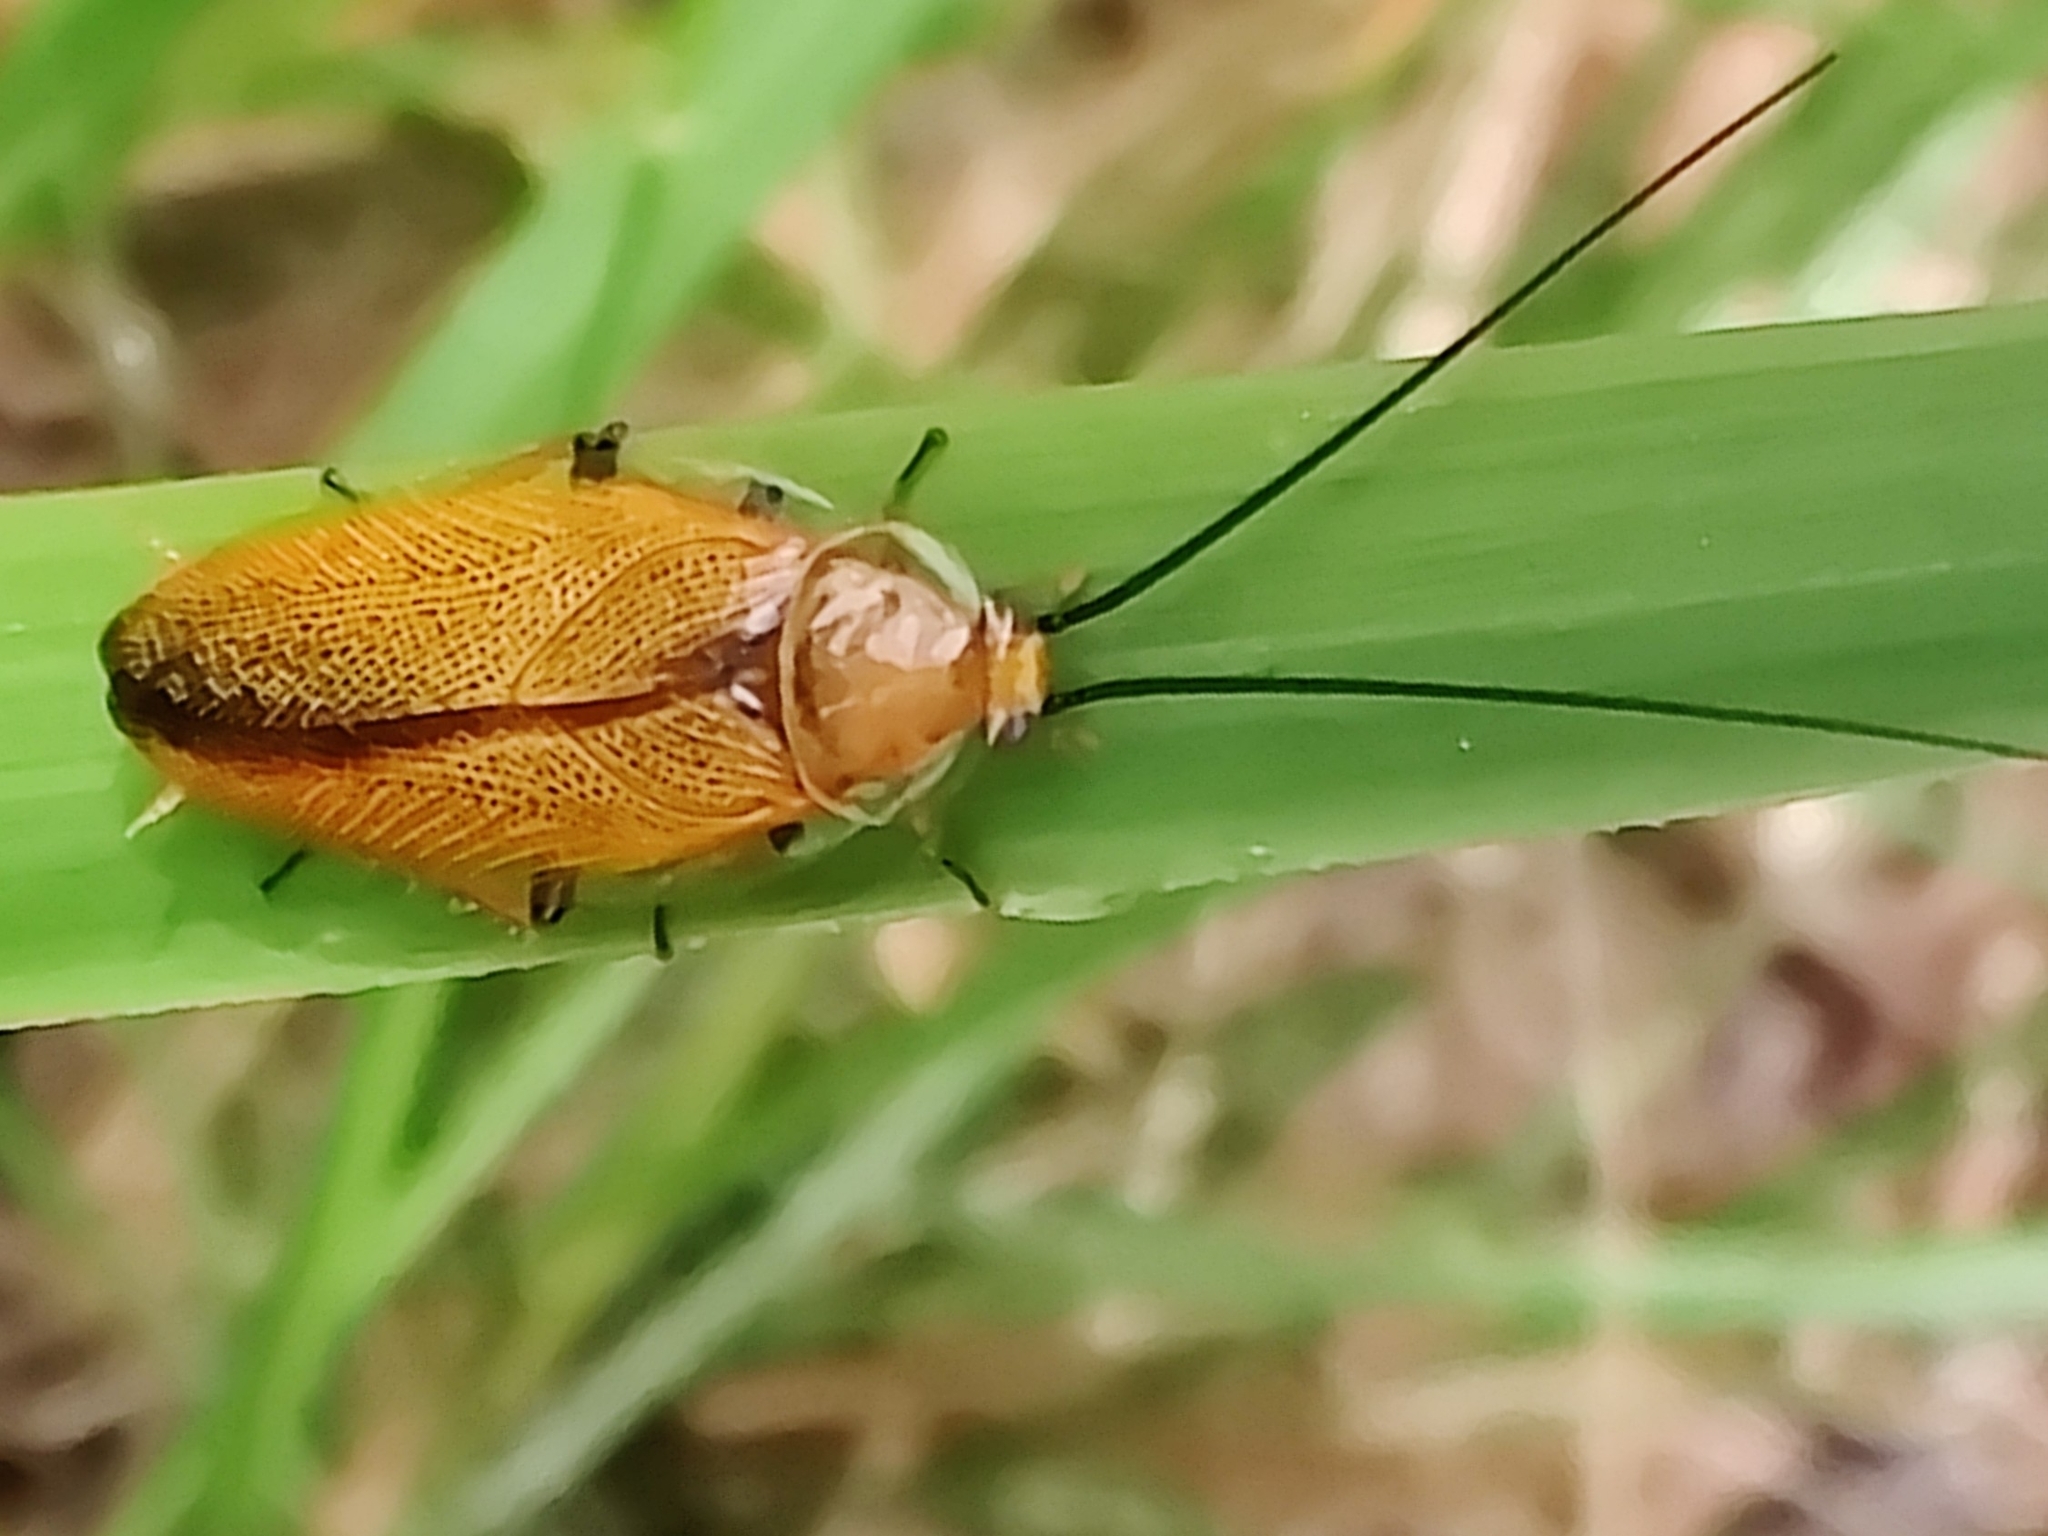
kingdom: Animalia
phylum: Arthropoda
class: Insecta
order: Blattodea
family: Ectobiidae
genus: Ellipsidion
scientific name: Ellipsidion humerale
